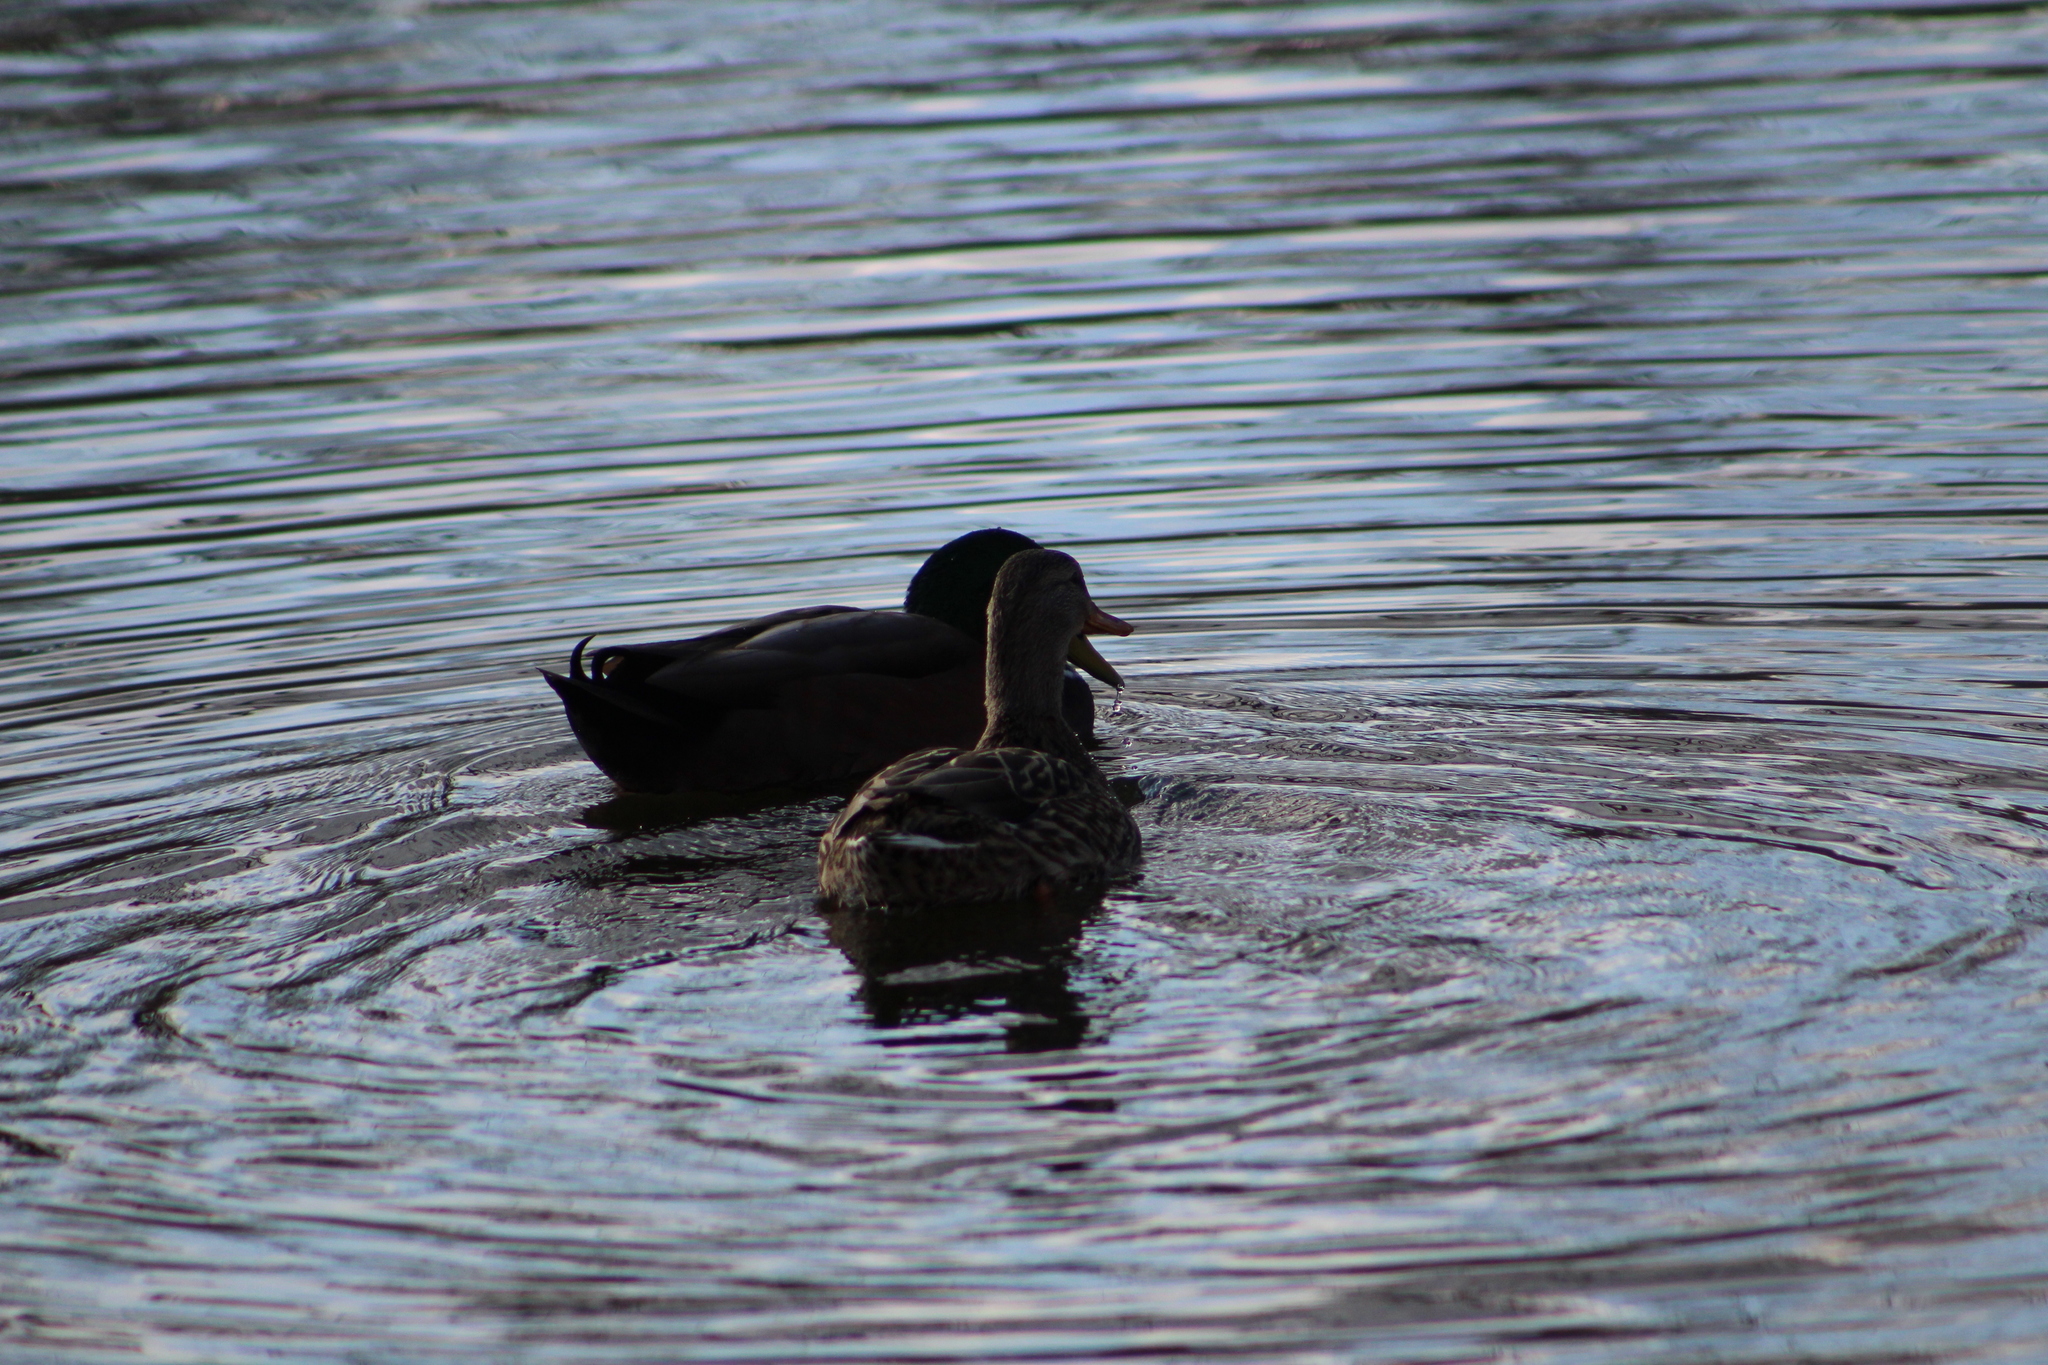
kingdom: Animalia
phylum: Chordata
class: Aves
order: Anseriformes
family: Anatidae
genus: Anas
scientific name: Anas platyrhynchos
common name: Mallard
